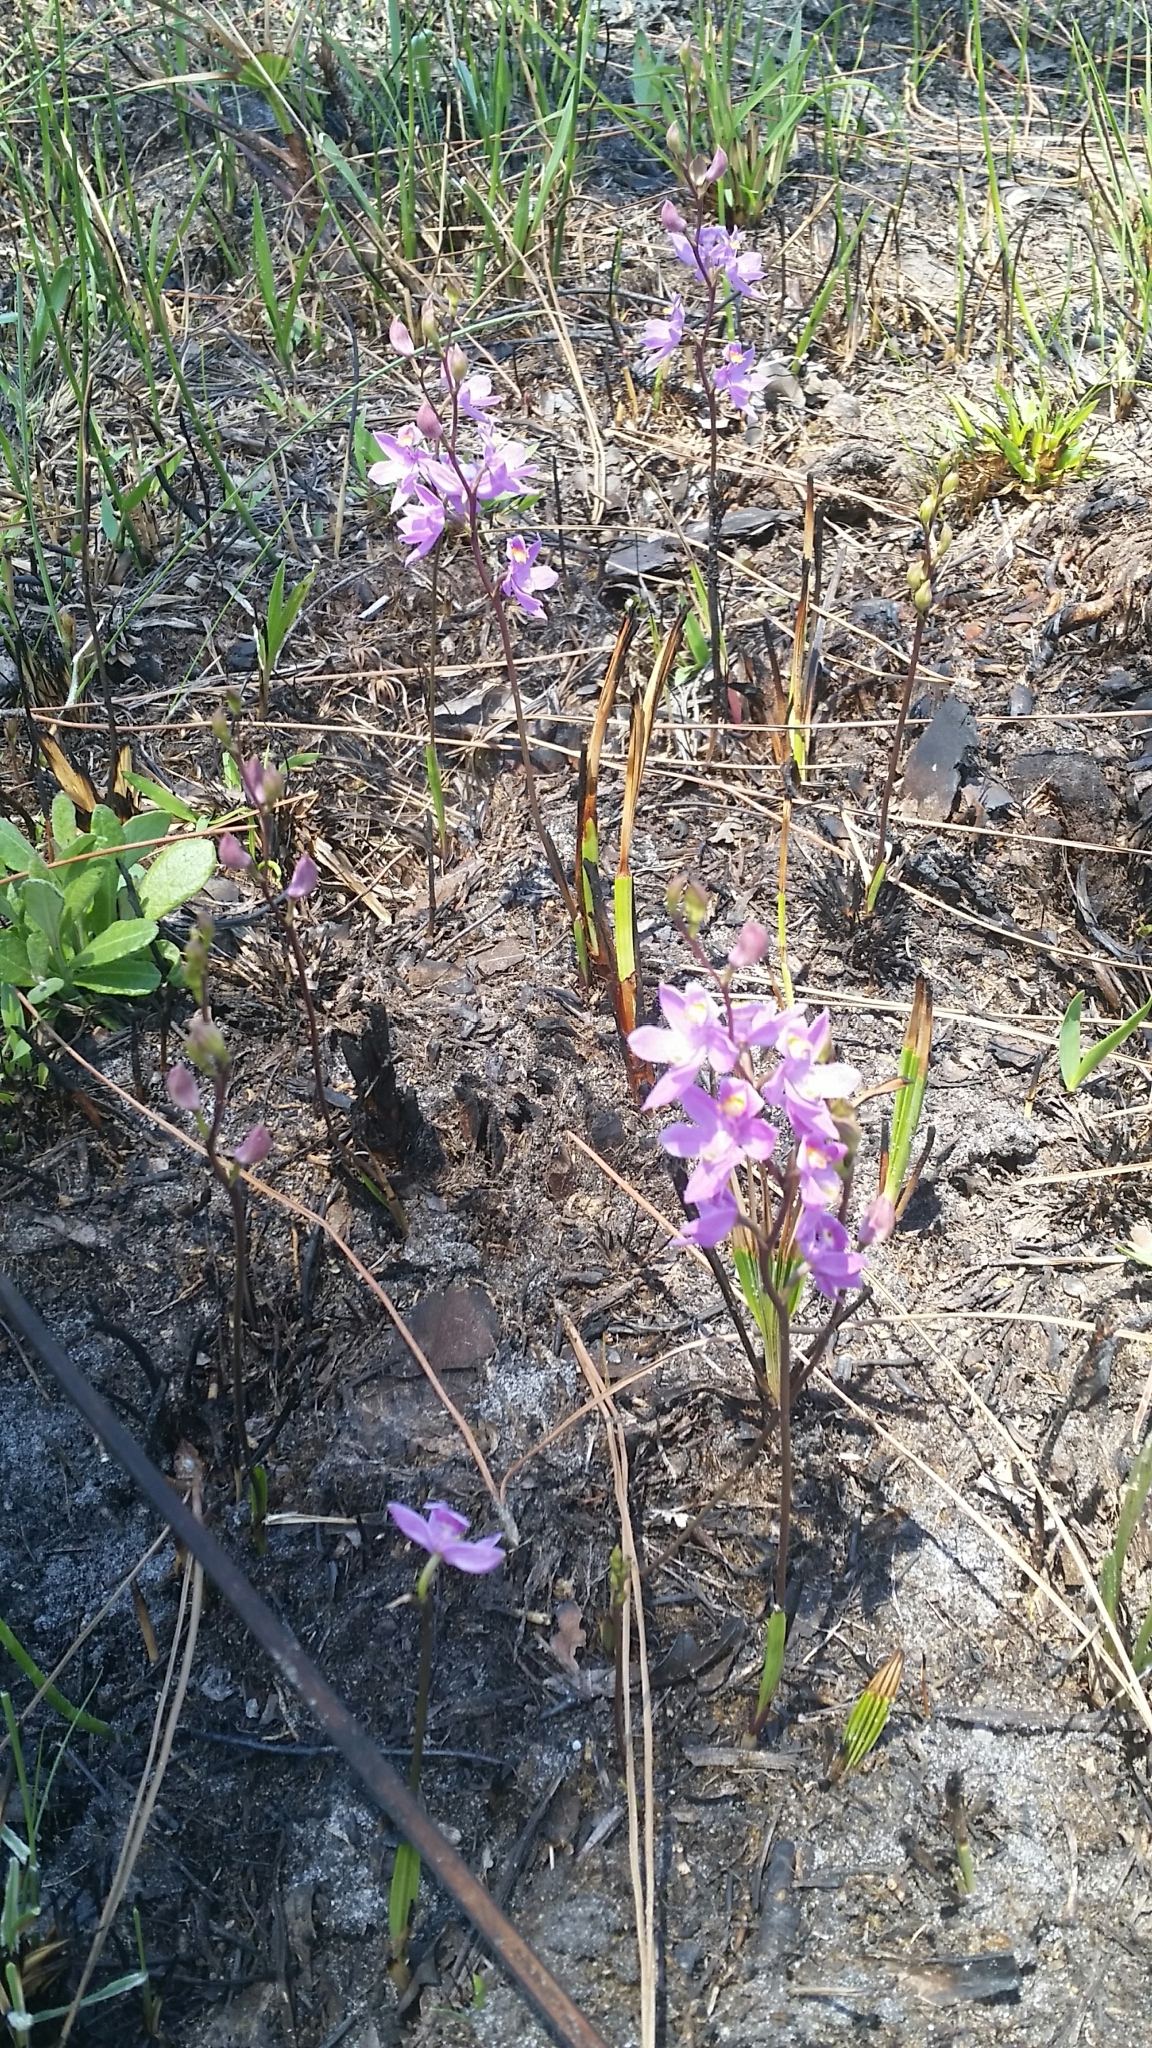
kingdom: Plantae
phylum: Tracheophyta
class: Liliopsida
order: Asparagales
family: Orchidaceae
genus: Calopogon
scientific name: Calopogon multiflorus
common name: Many-flowered grass-pink orchid
